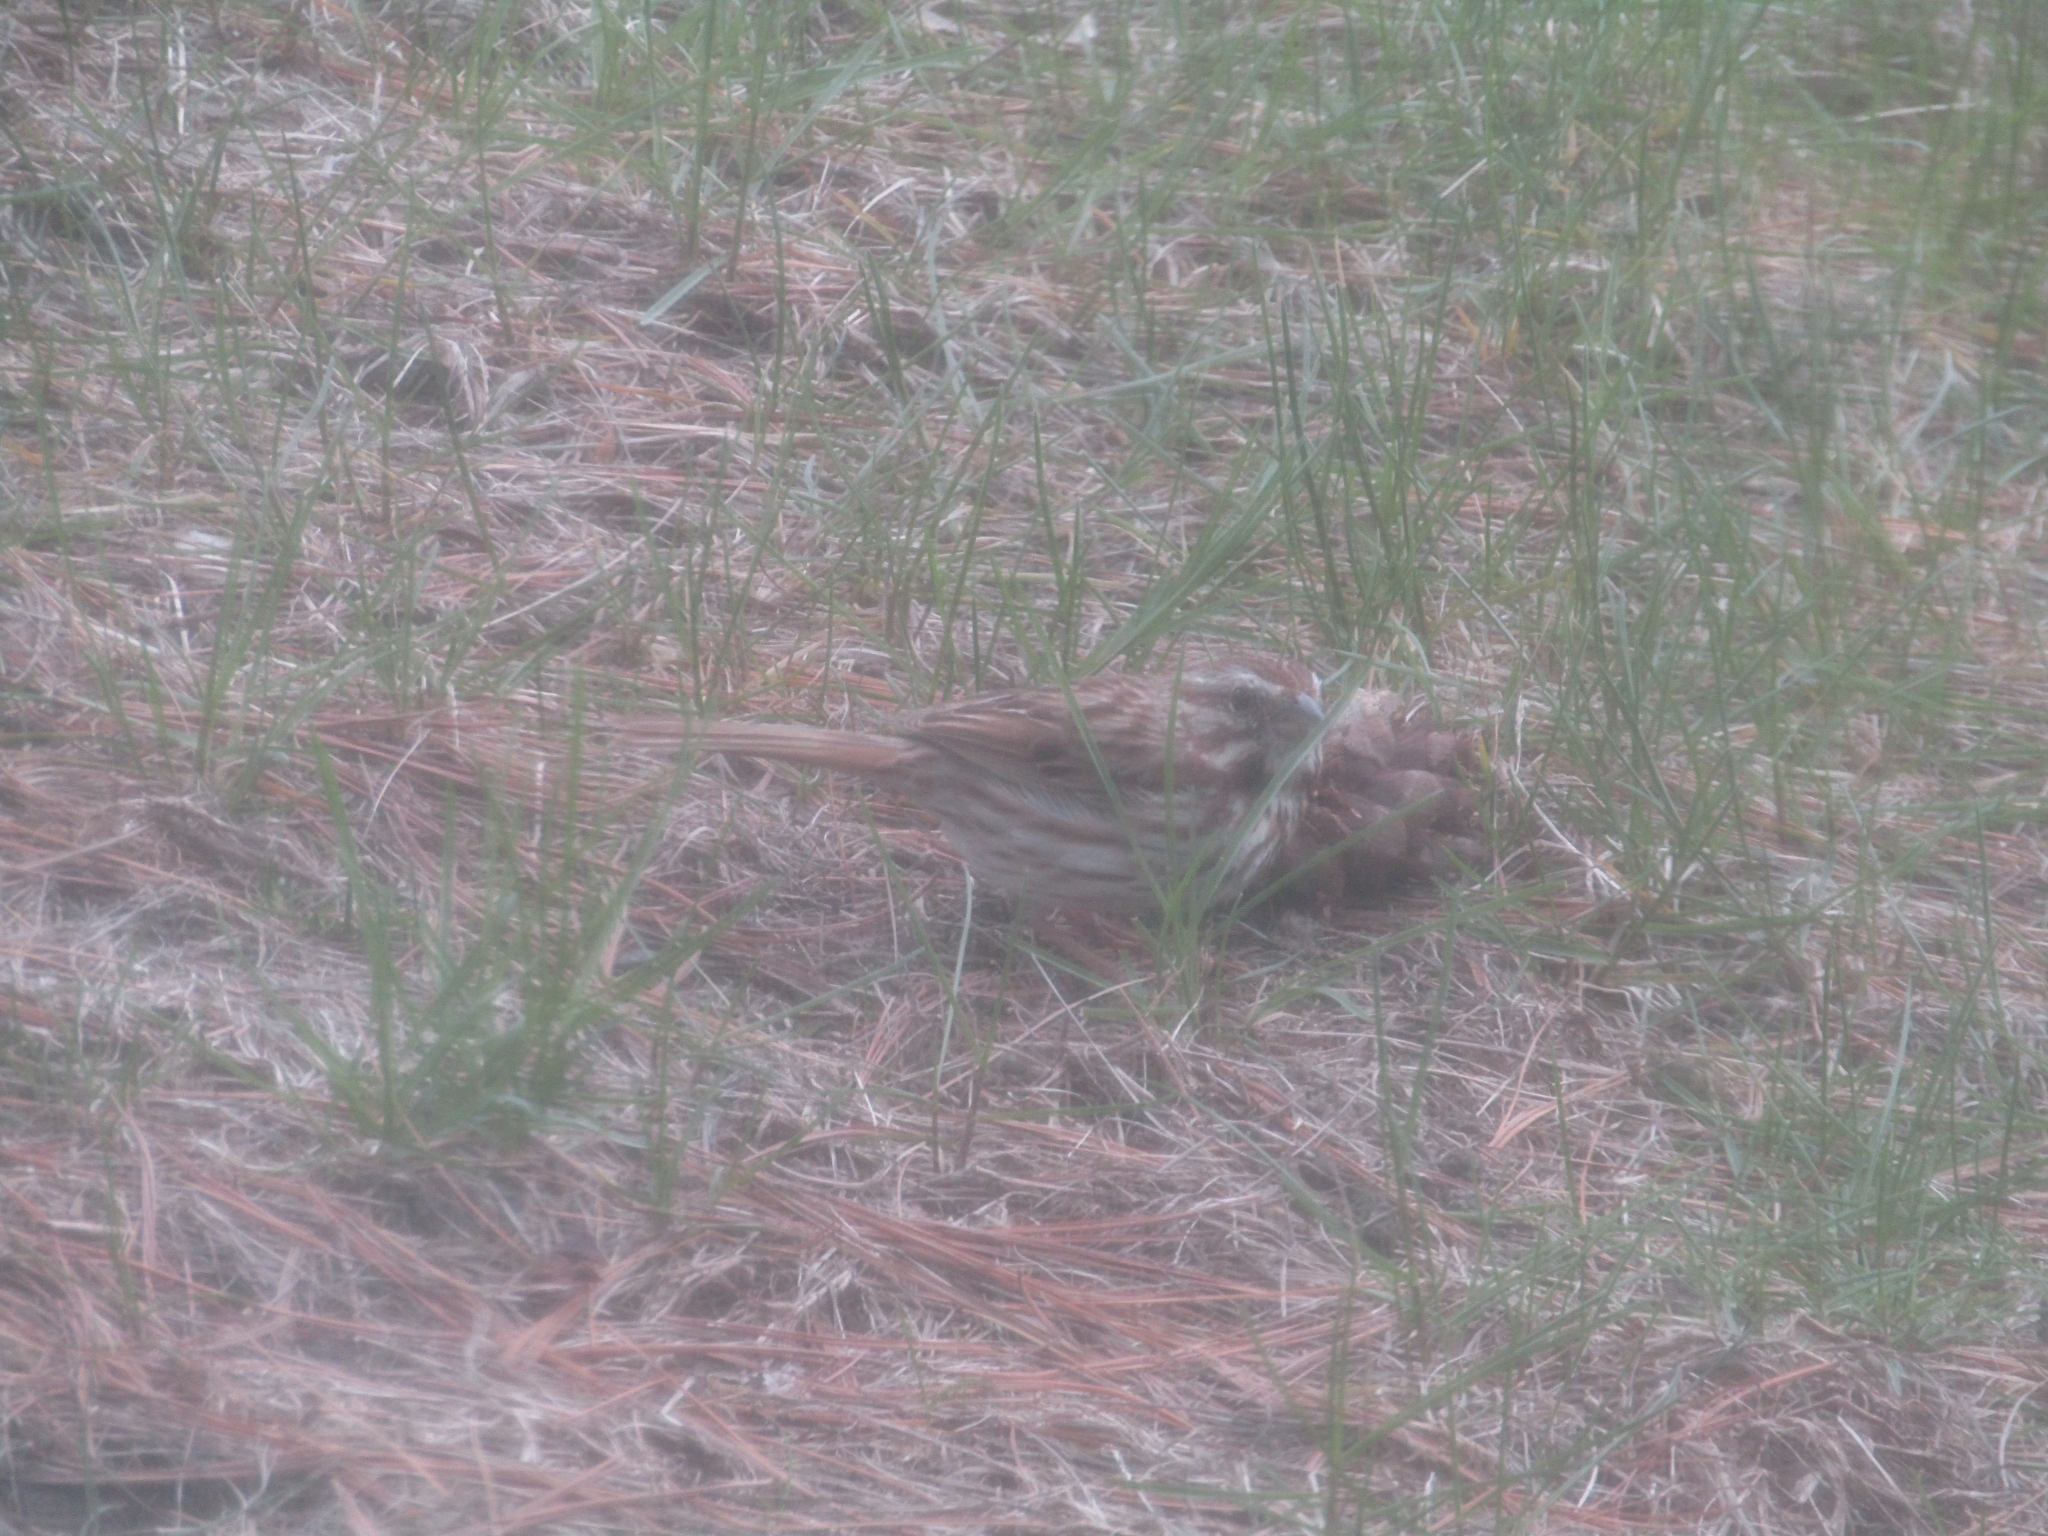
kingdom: Animalia
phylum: Chordata
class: Aves
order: Passeriformes
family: Passerellidae
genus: Melospiza
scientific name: Melospiza melodia
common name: Song sparrow
